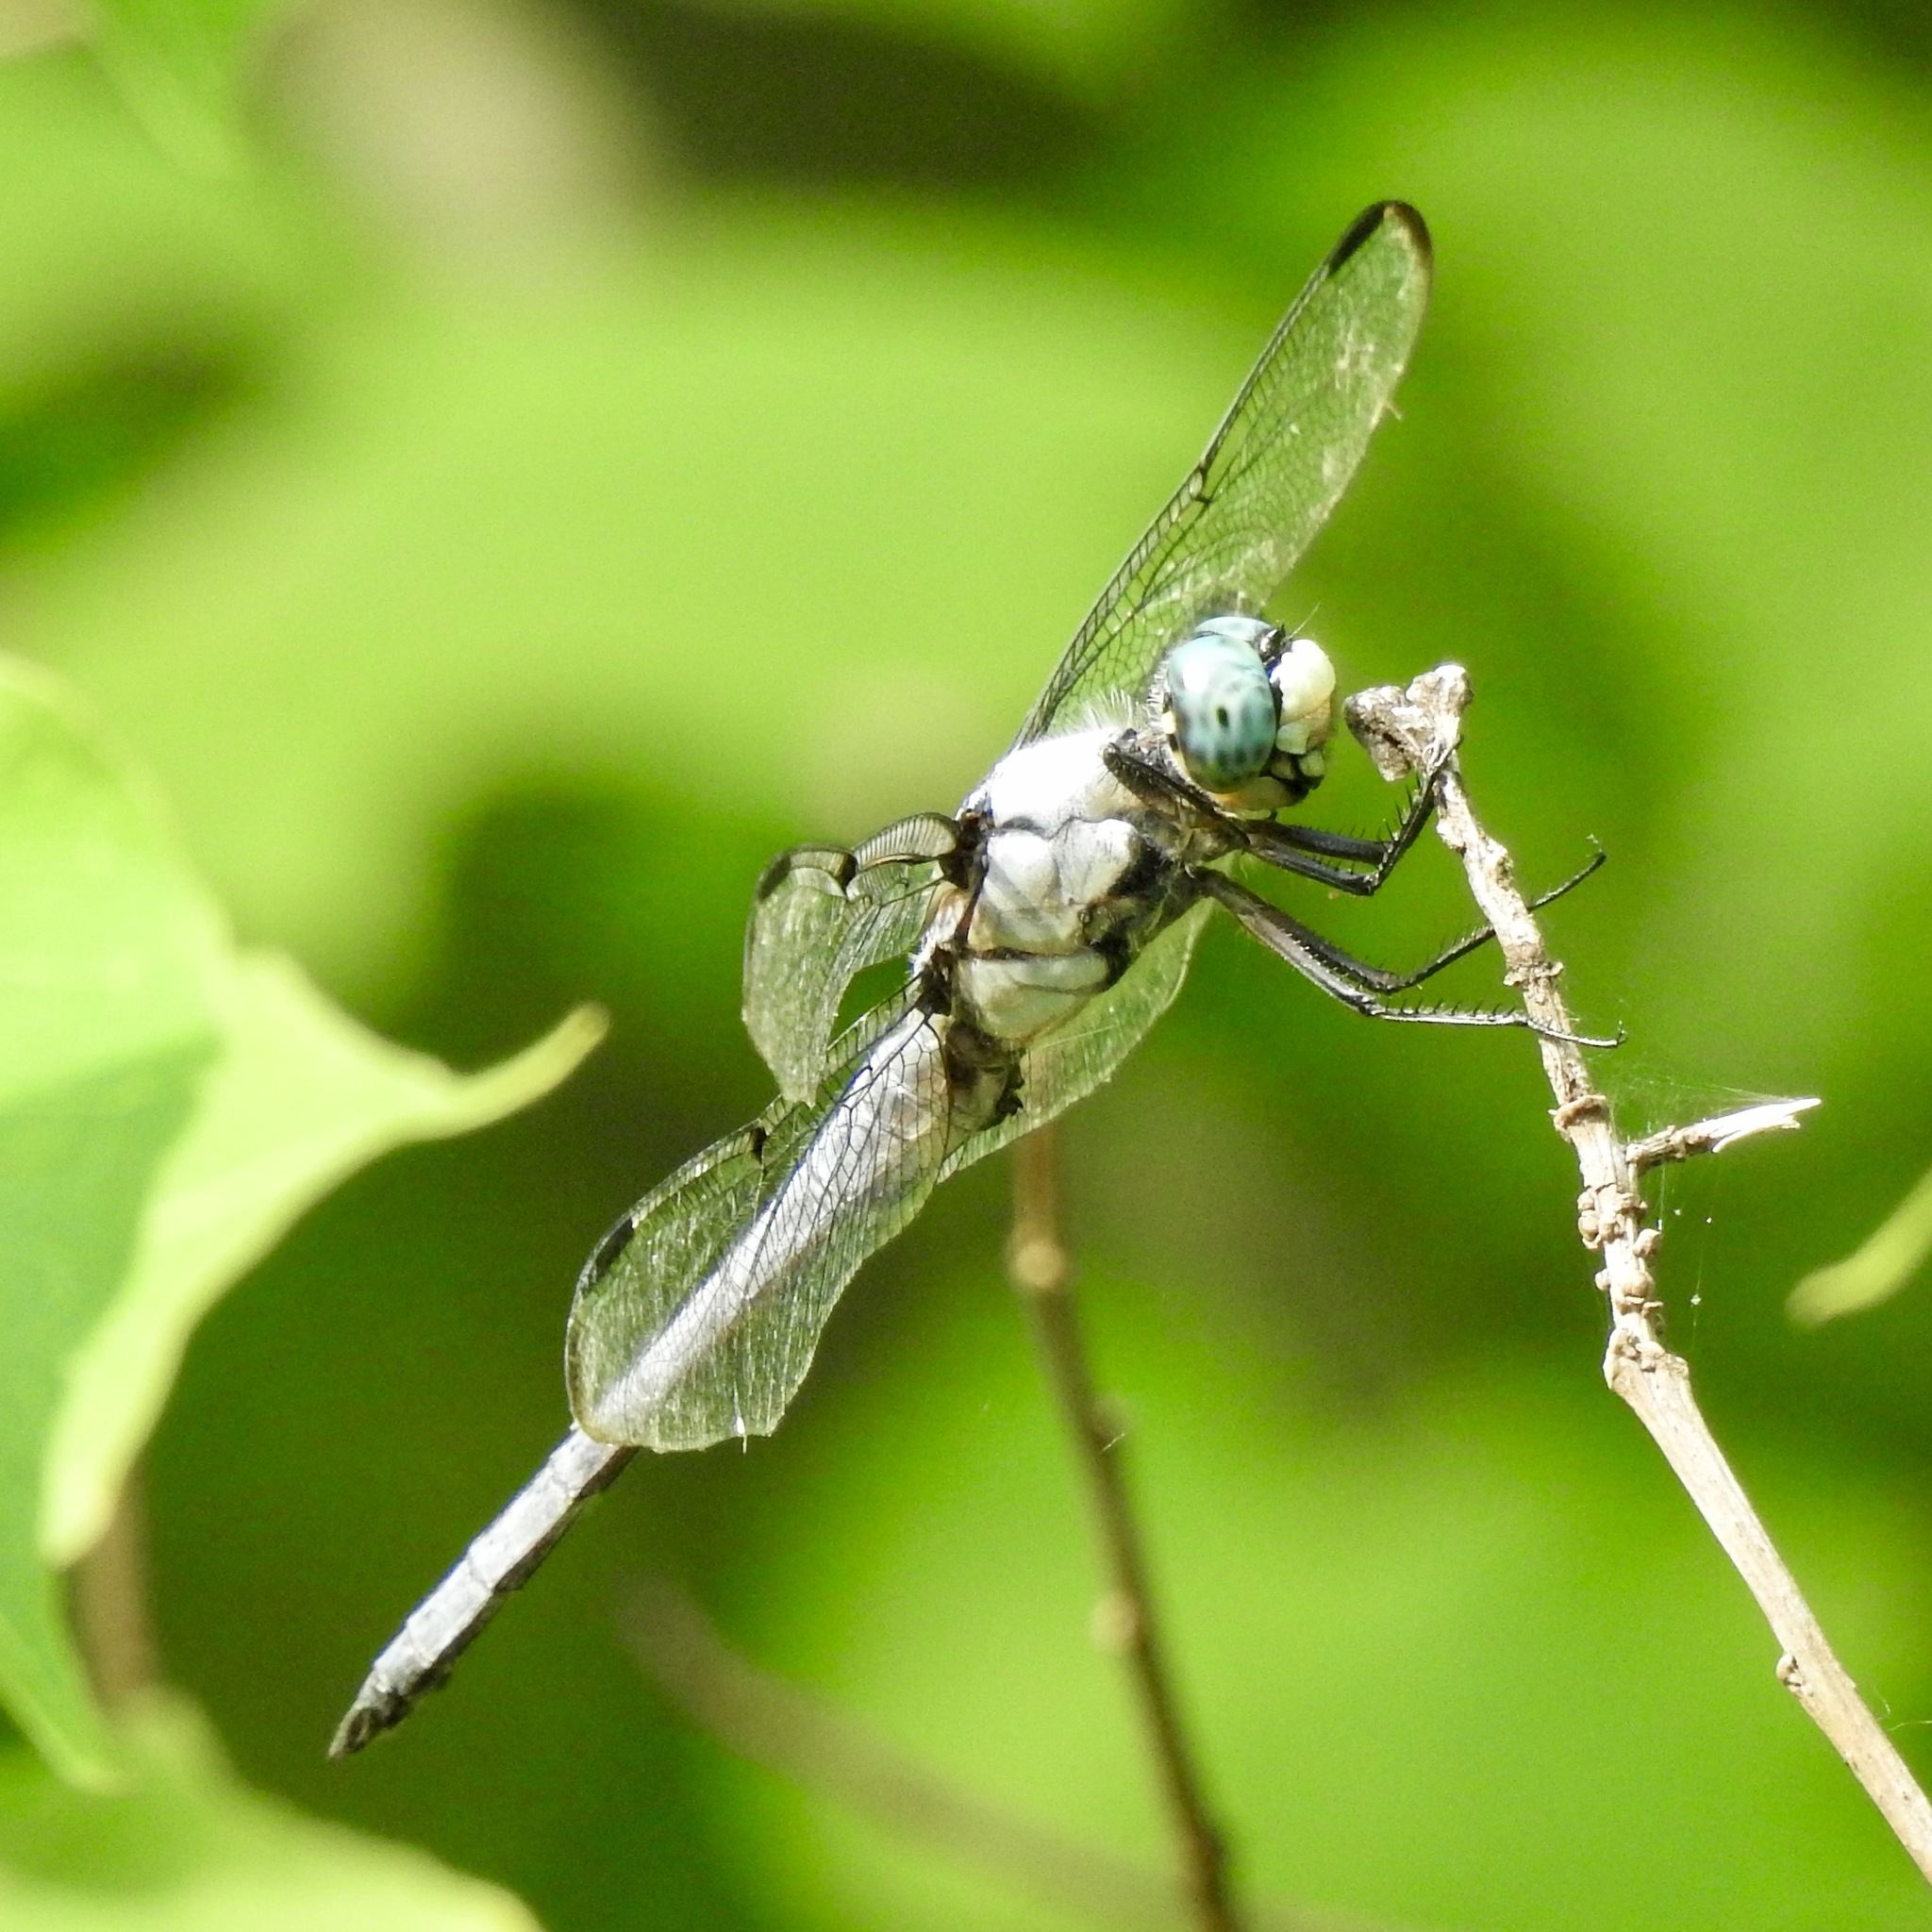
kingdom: Animalia
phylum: Arthropoda
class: Insecta
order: Odonata
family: Libellulidae
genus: Libellula
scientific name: Libellula vibrans
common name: Great blue skimmer
